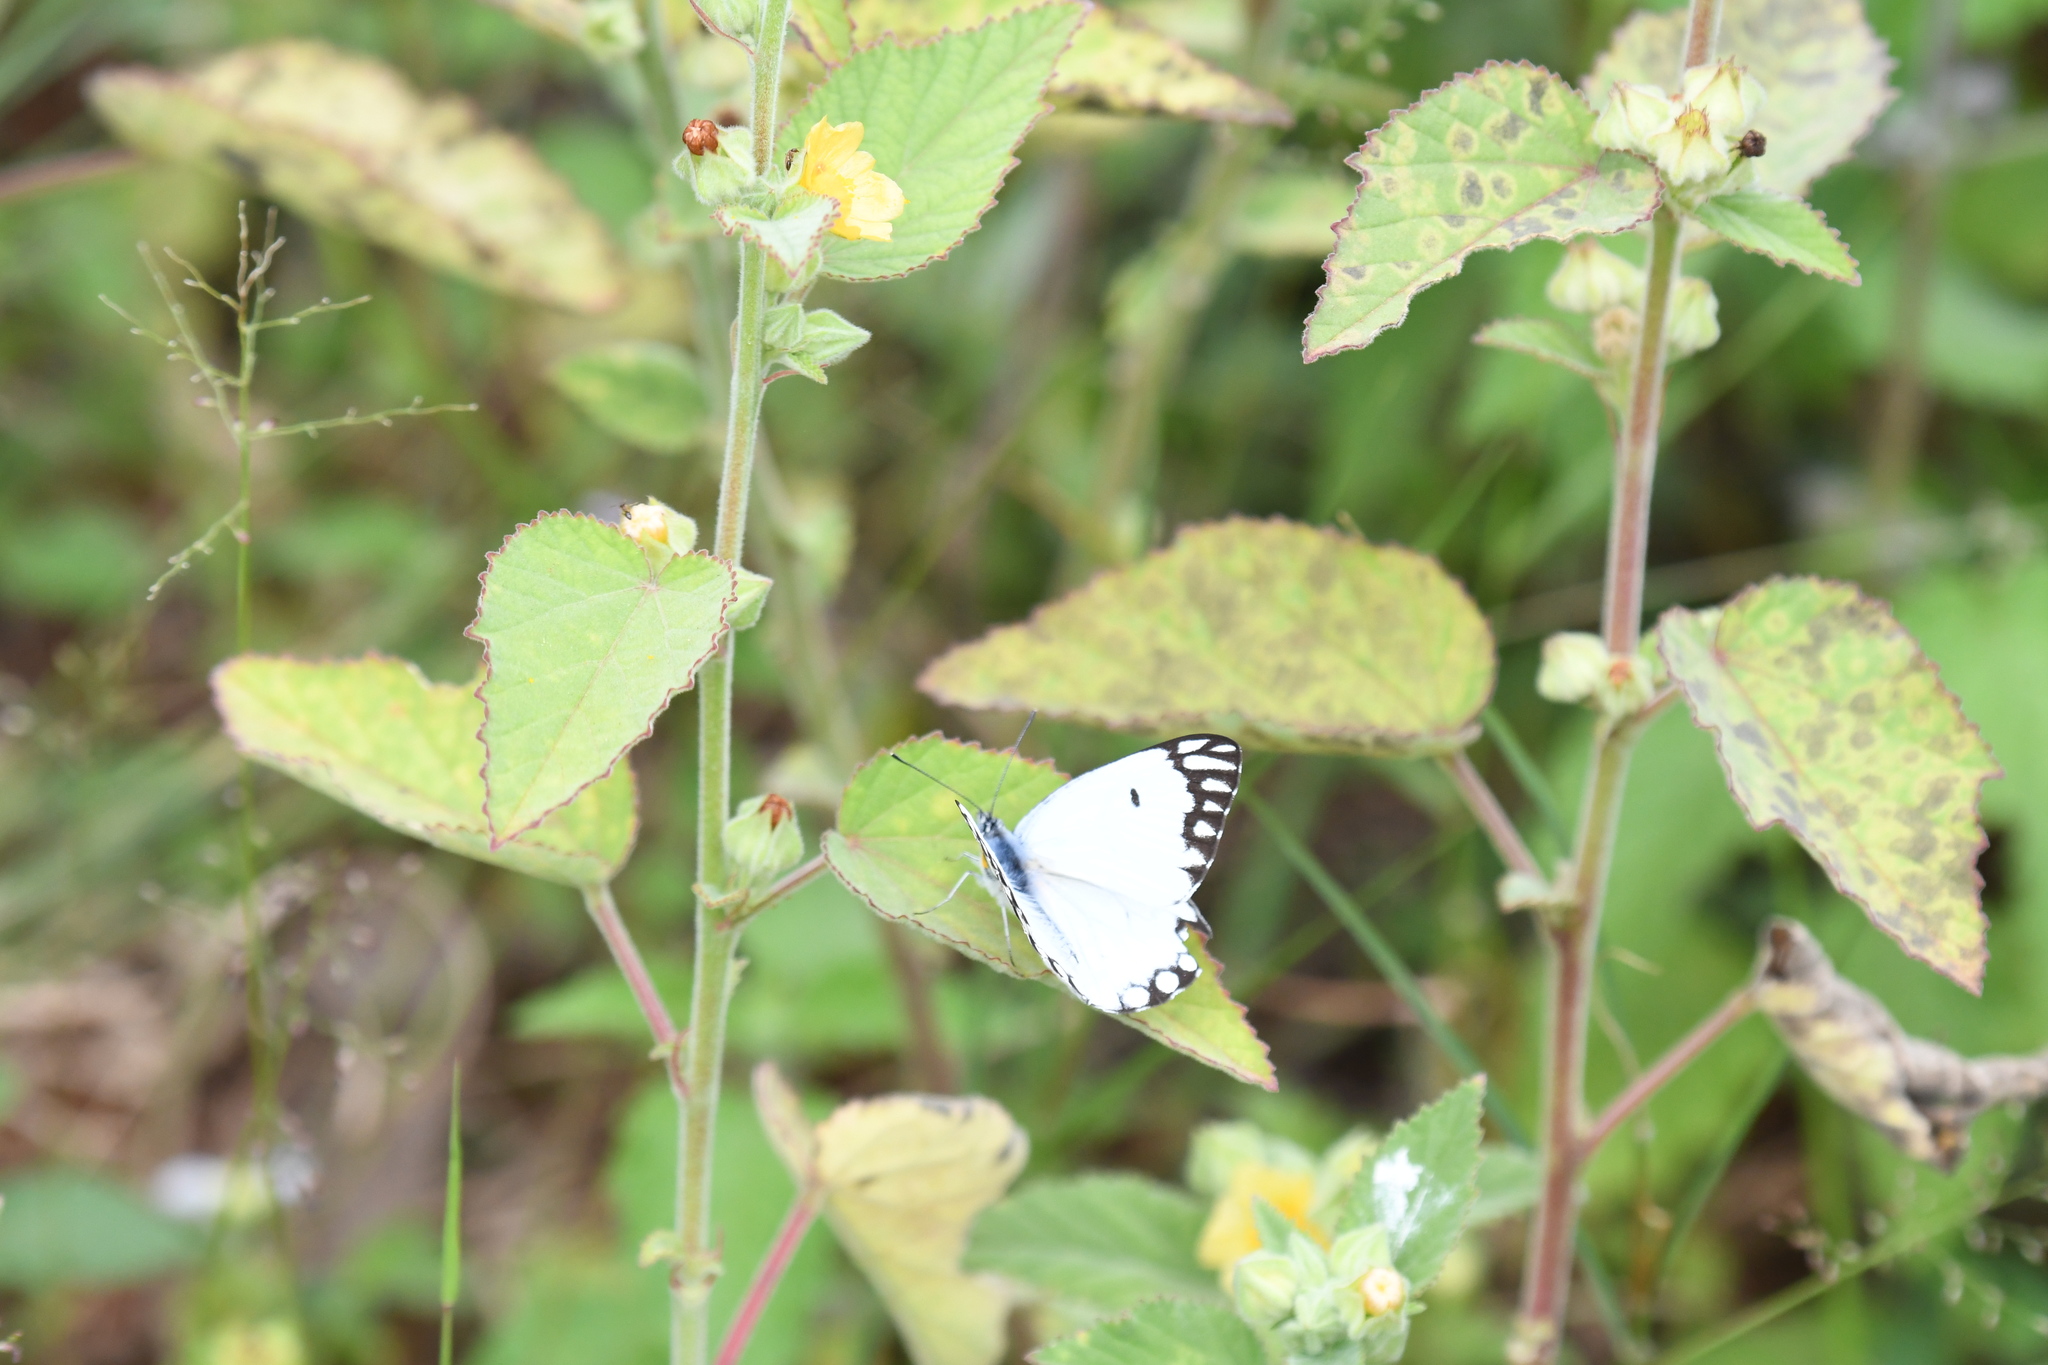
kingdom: Animalia
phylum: Arthropoda
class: Insecta
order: Lepidoptera
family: Pieridae
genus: Belenois
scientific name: Belenois aurota
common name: Brown-veined white
